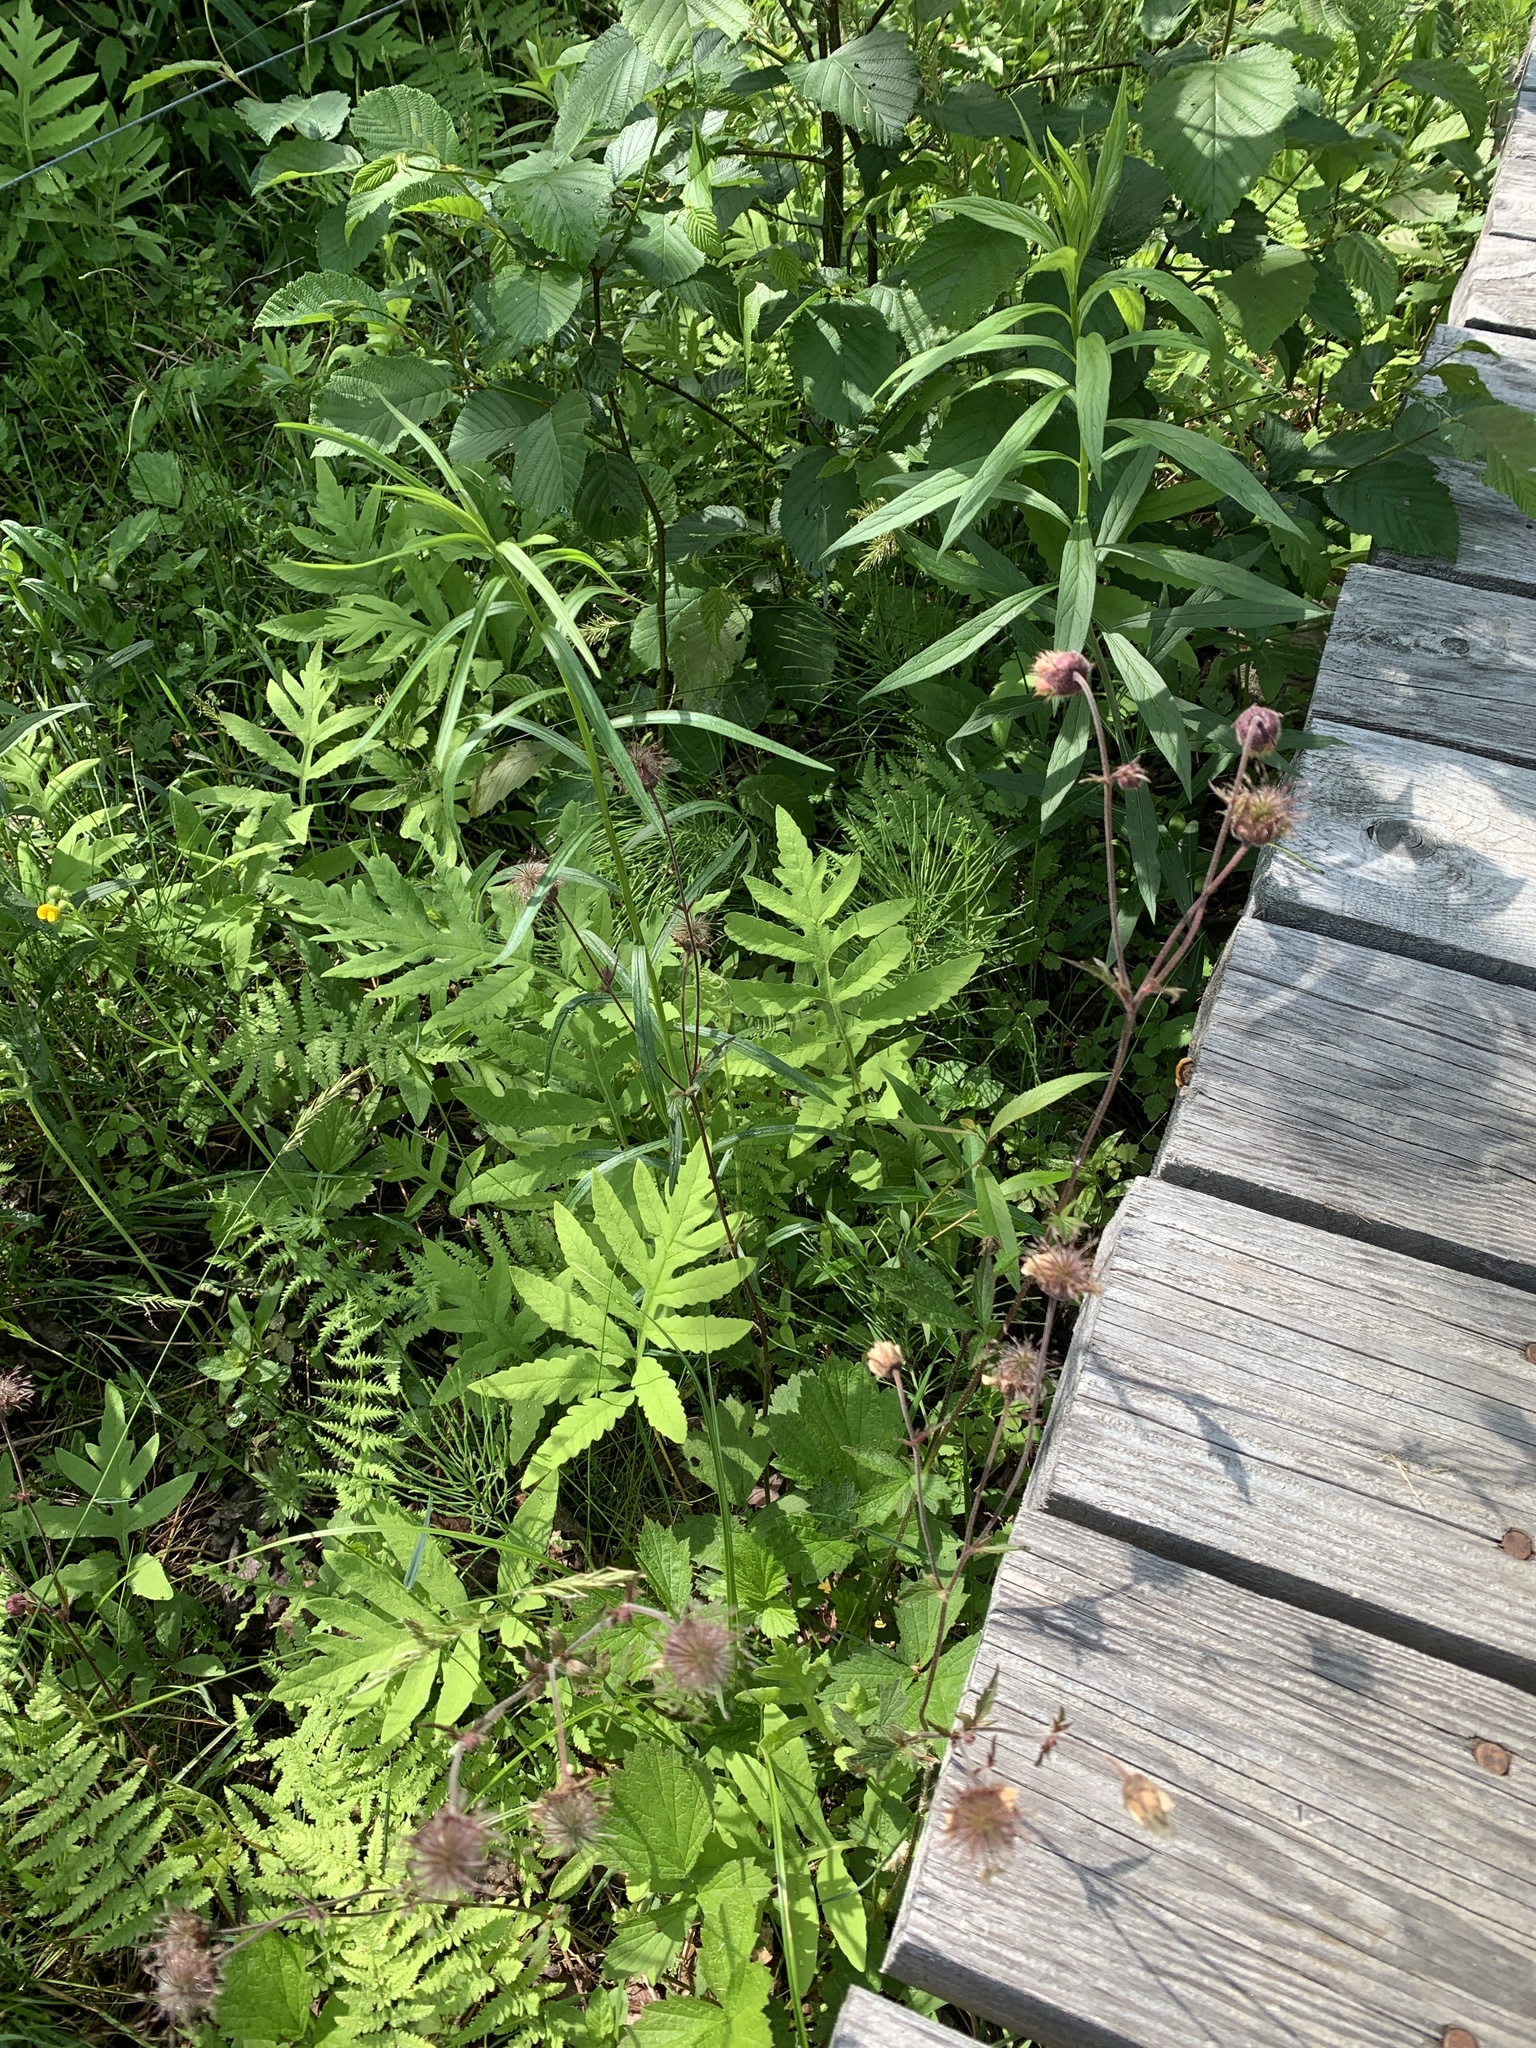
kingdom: Plantae
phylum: Tracheophyta
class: Magnoliopsida
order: Rosales
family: Rosaceae
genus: Geum
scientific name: Geum rivale
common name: Water avens
